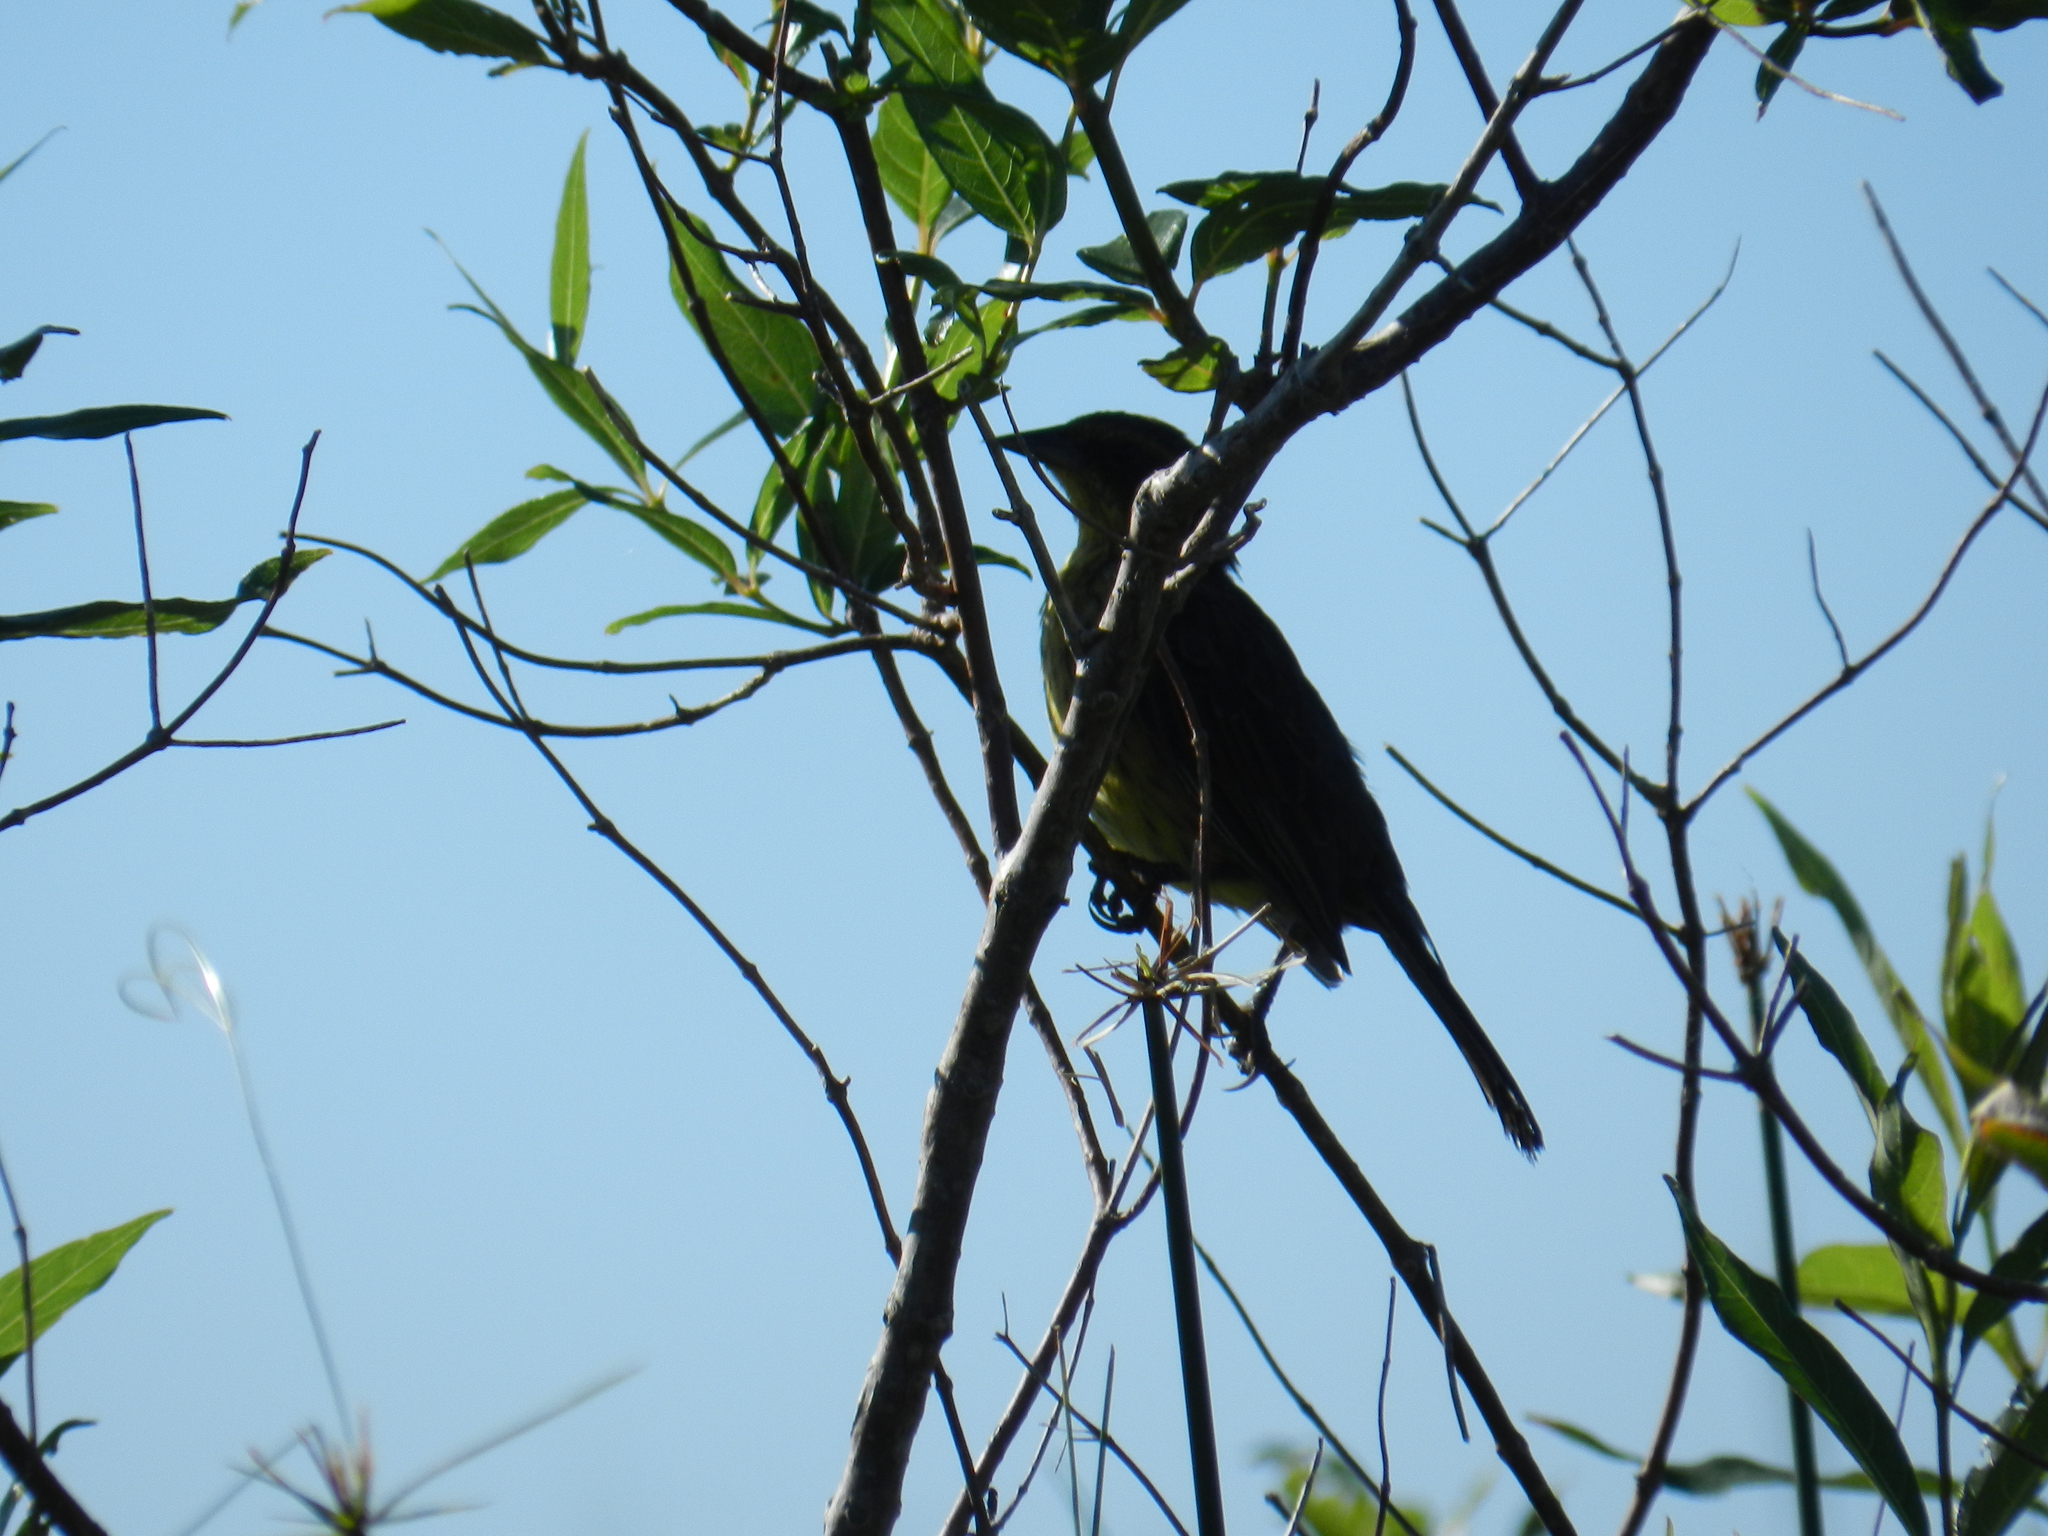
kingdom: Animalia
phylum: Chordata
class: Aves
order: Passeriformes
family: Icteridae
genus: Agelasticus
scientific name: Agelasticus cyanopus
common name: Unicolored blackbird
